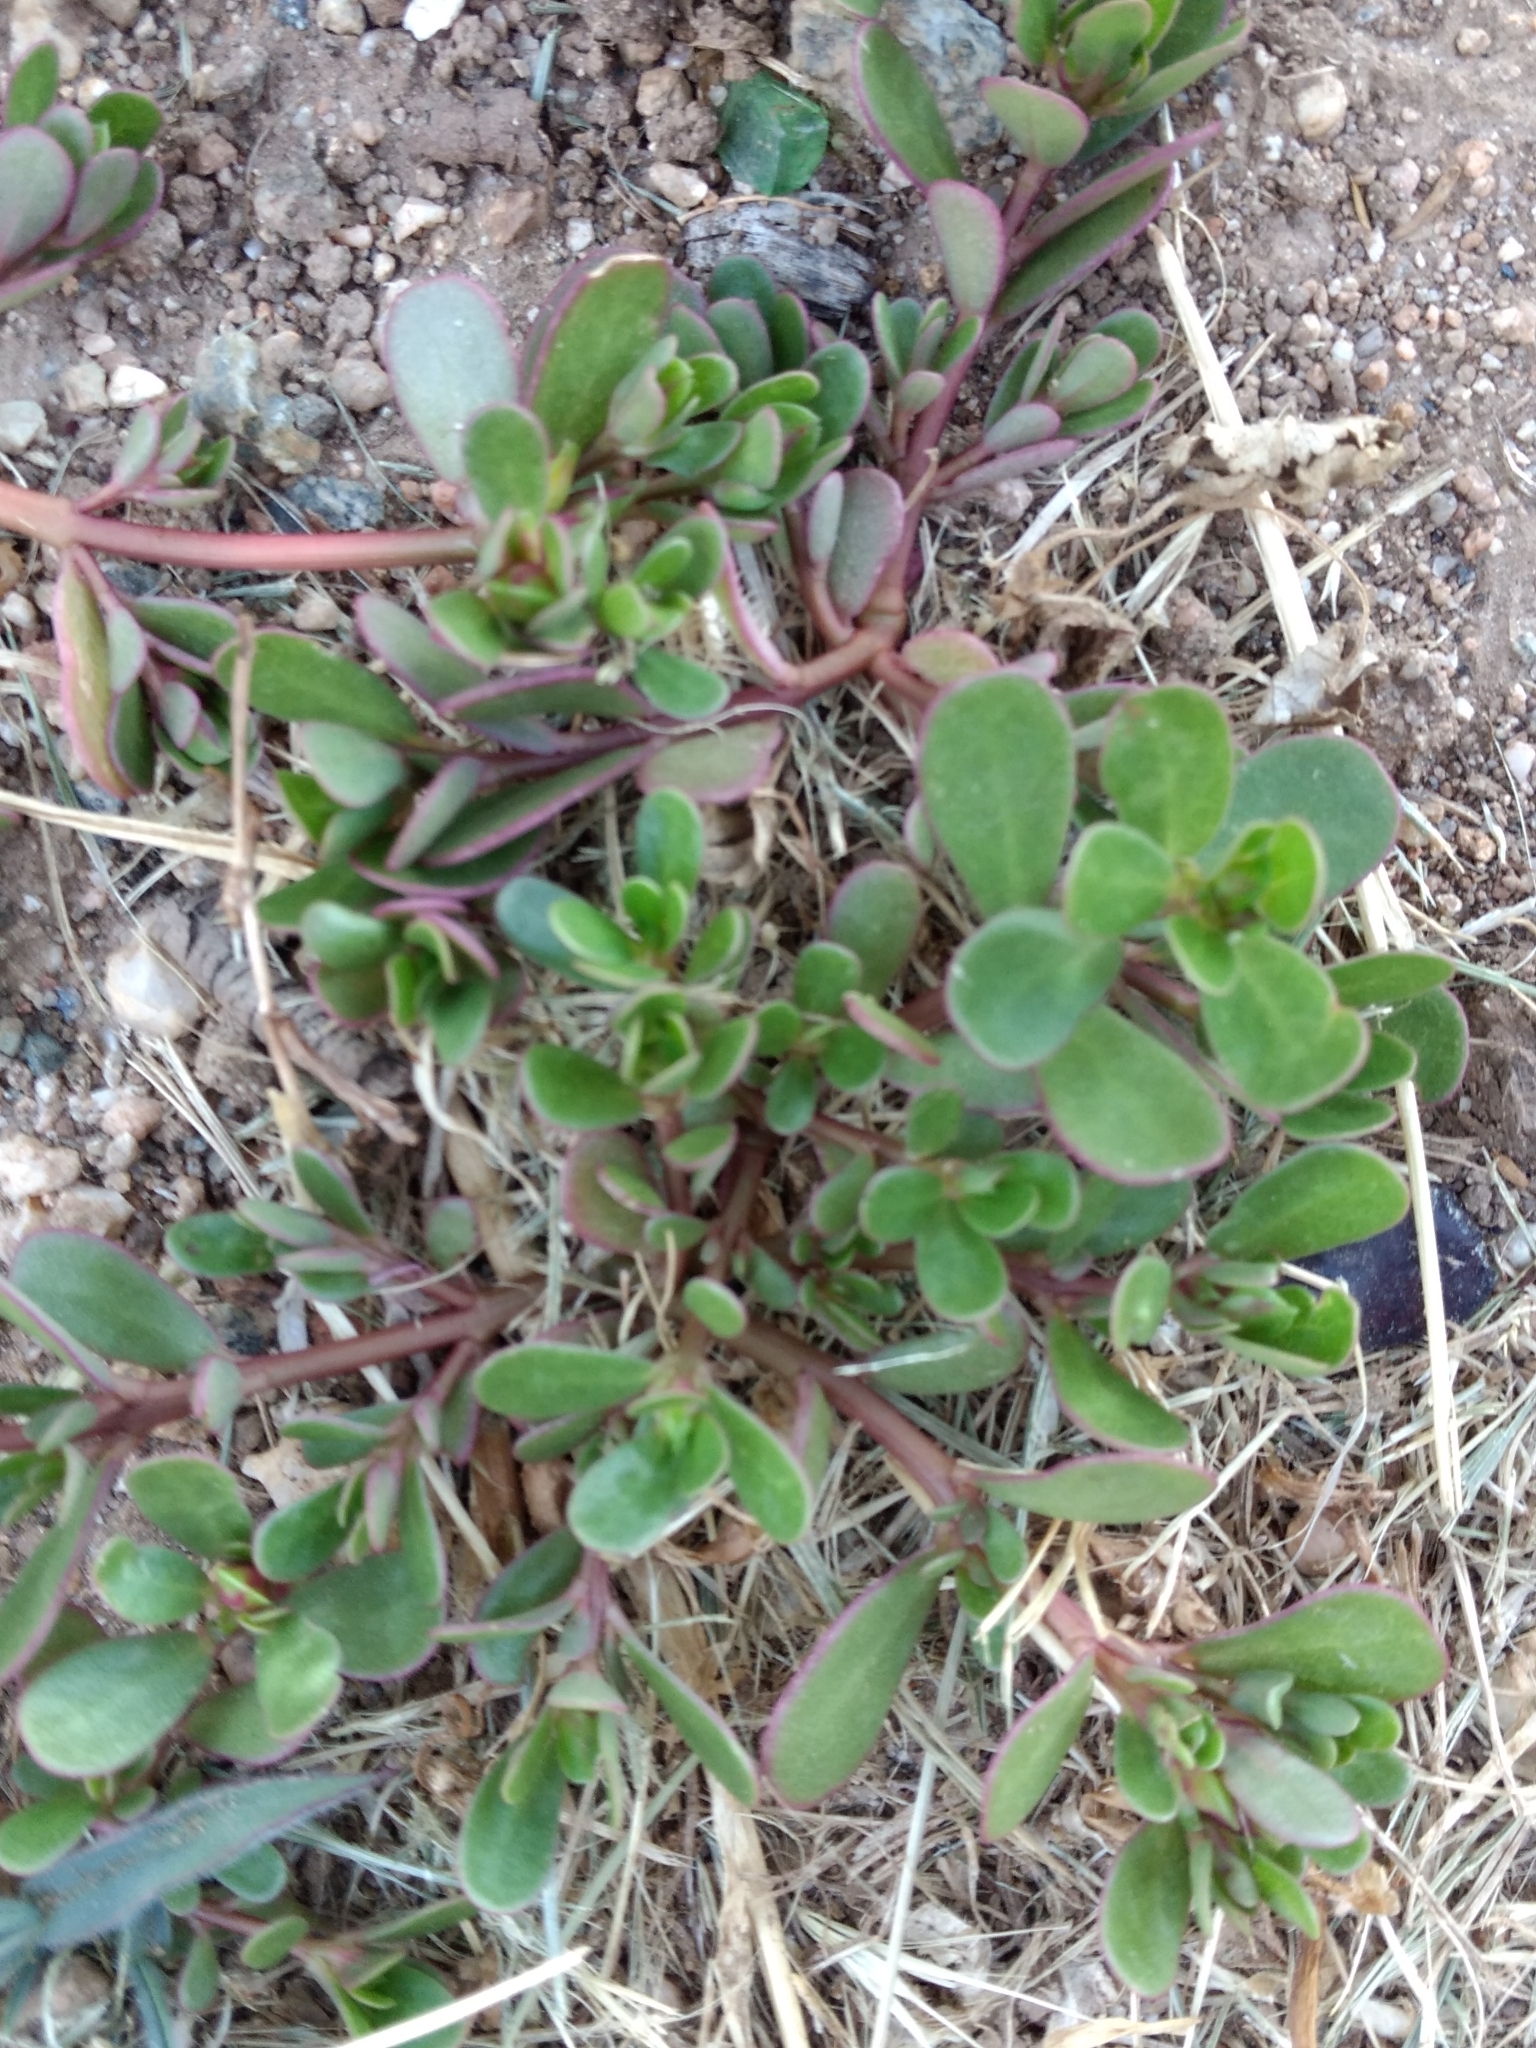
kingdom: Plantae
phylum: Tracheophyta
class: Magnoliopsida
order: Caryophyllales
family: Portulacaceae
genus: Portulaca
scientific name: Portulaca oleracea
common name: Common purslane
